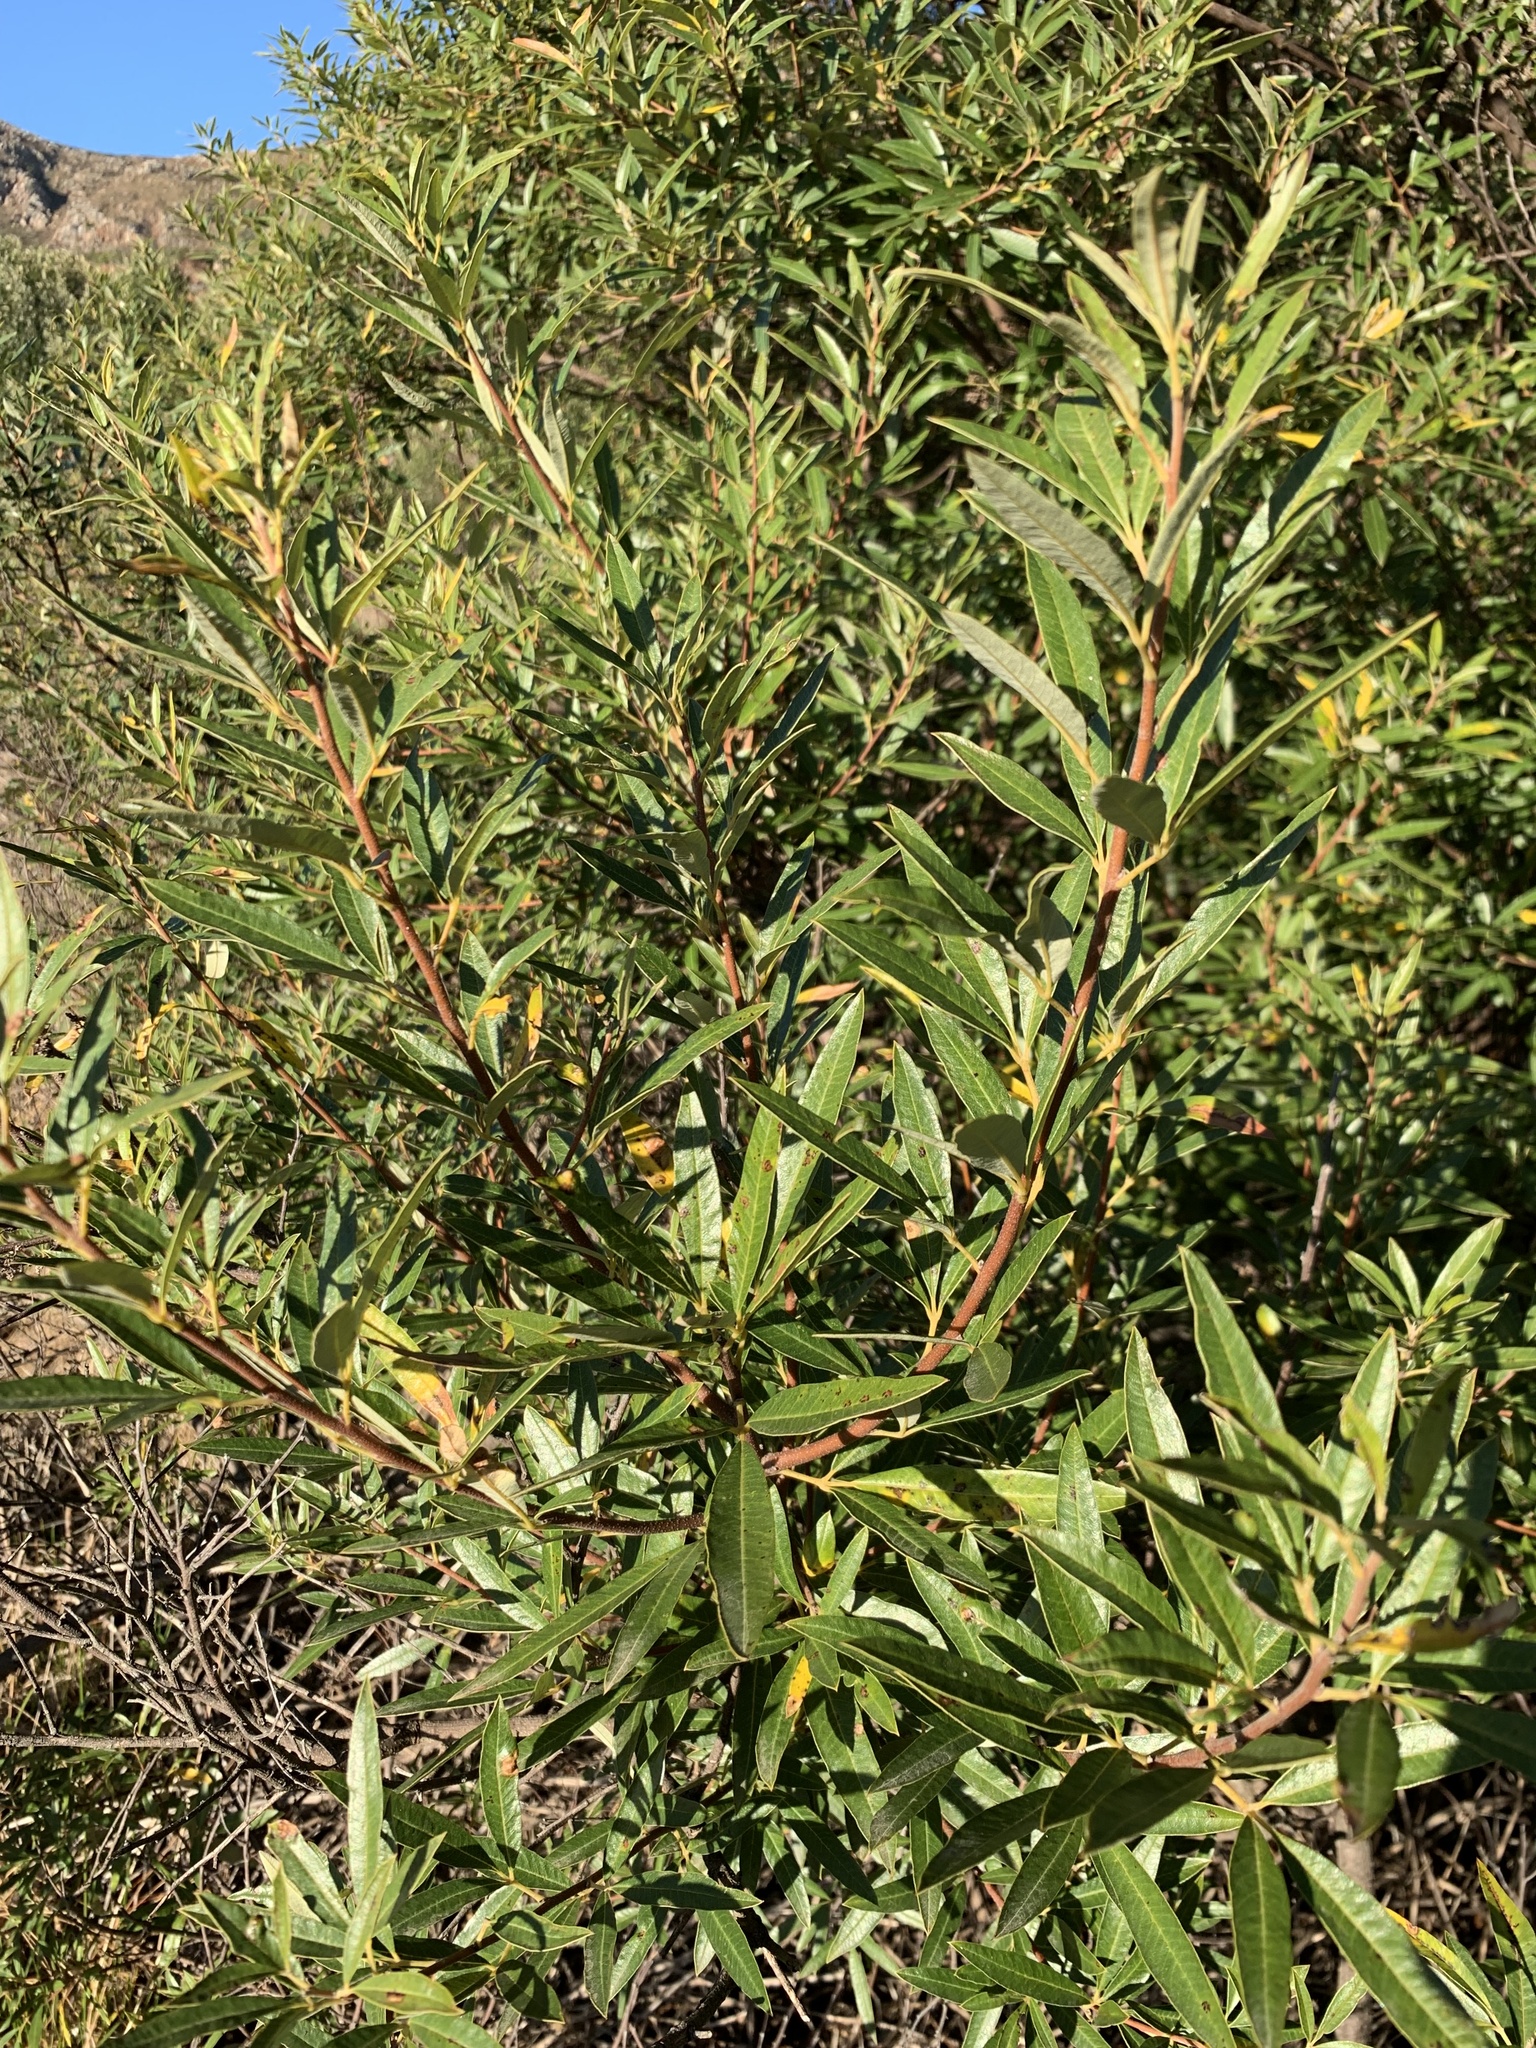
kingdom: Plantae
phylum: Tracheophyta
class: Magnoliopsida
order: Sapindales
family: Anacardiaceae
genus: Searsia
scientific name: Searsia angustifolia
